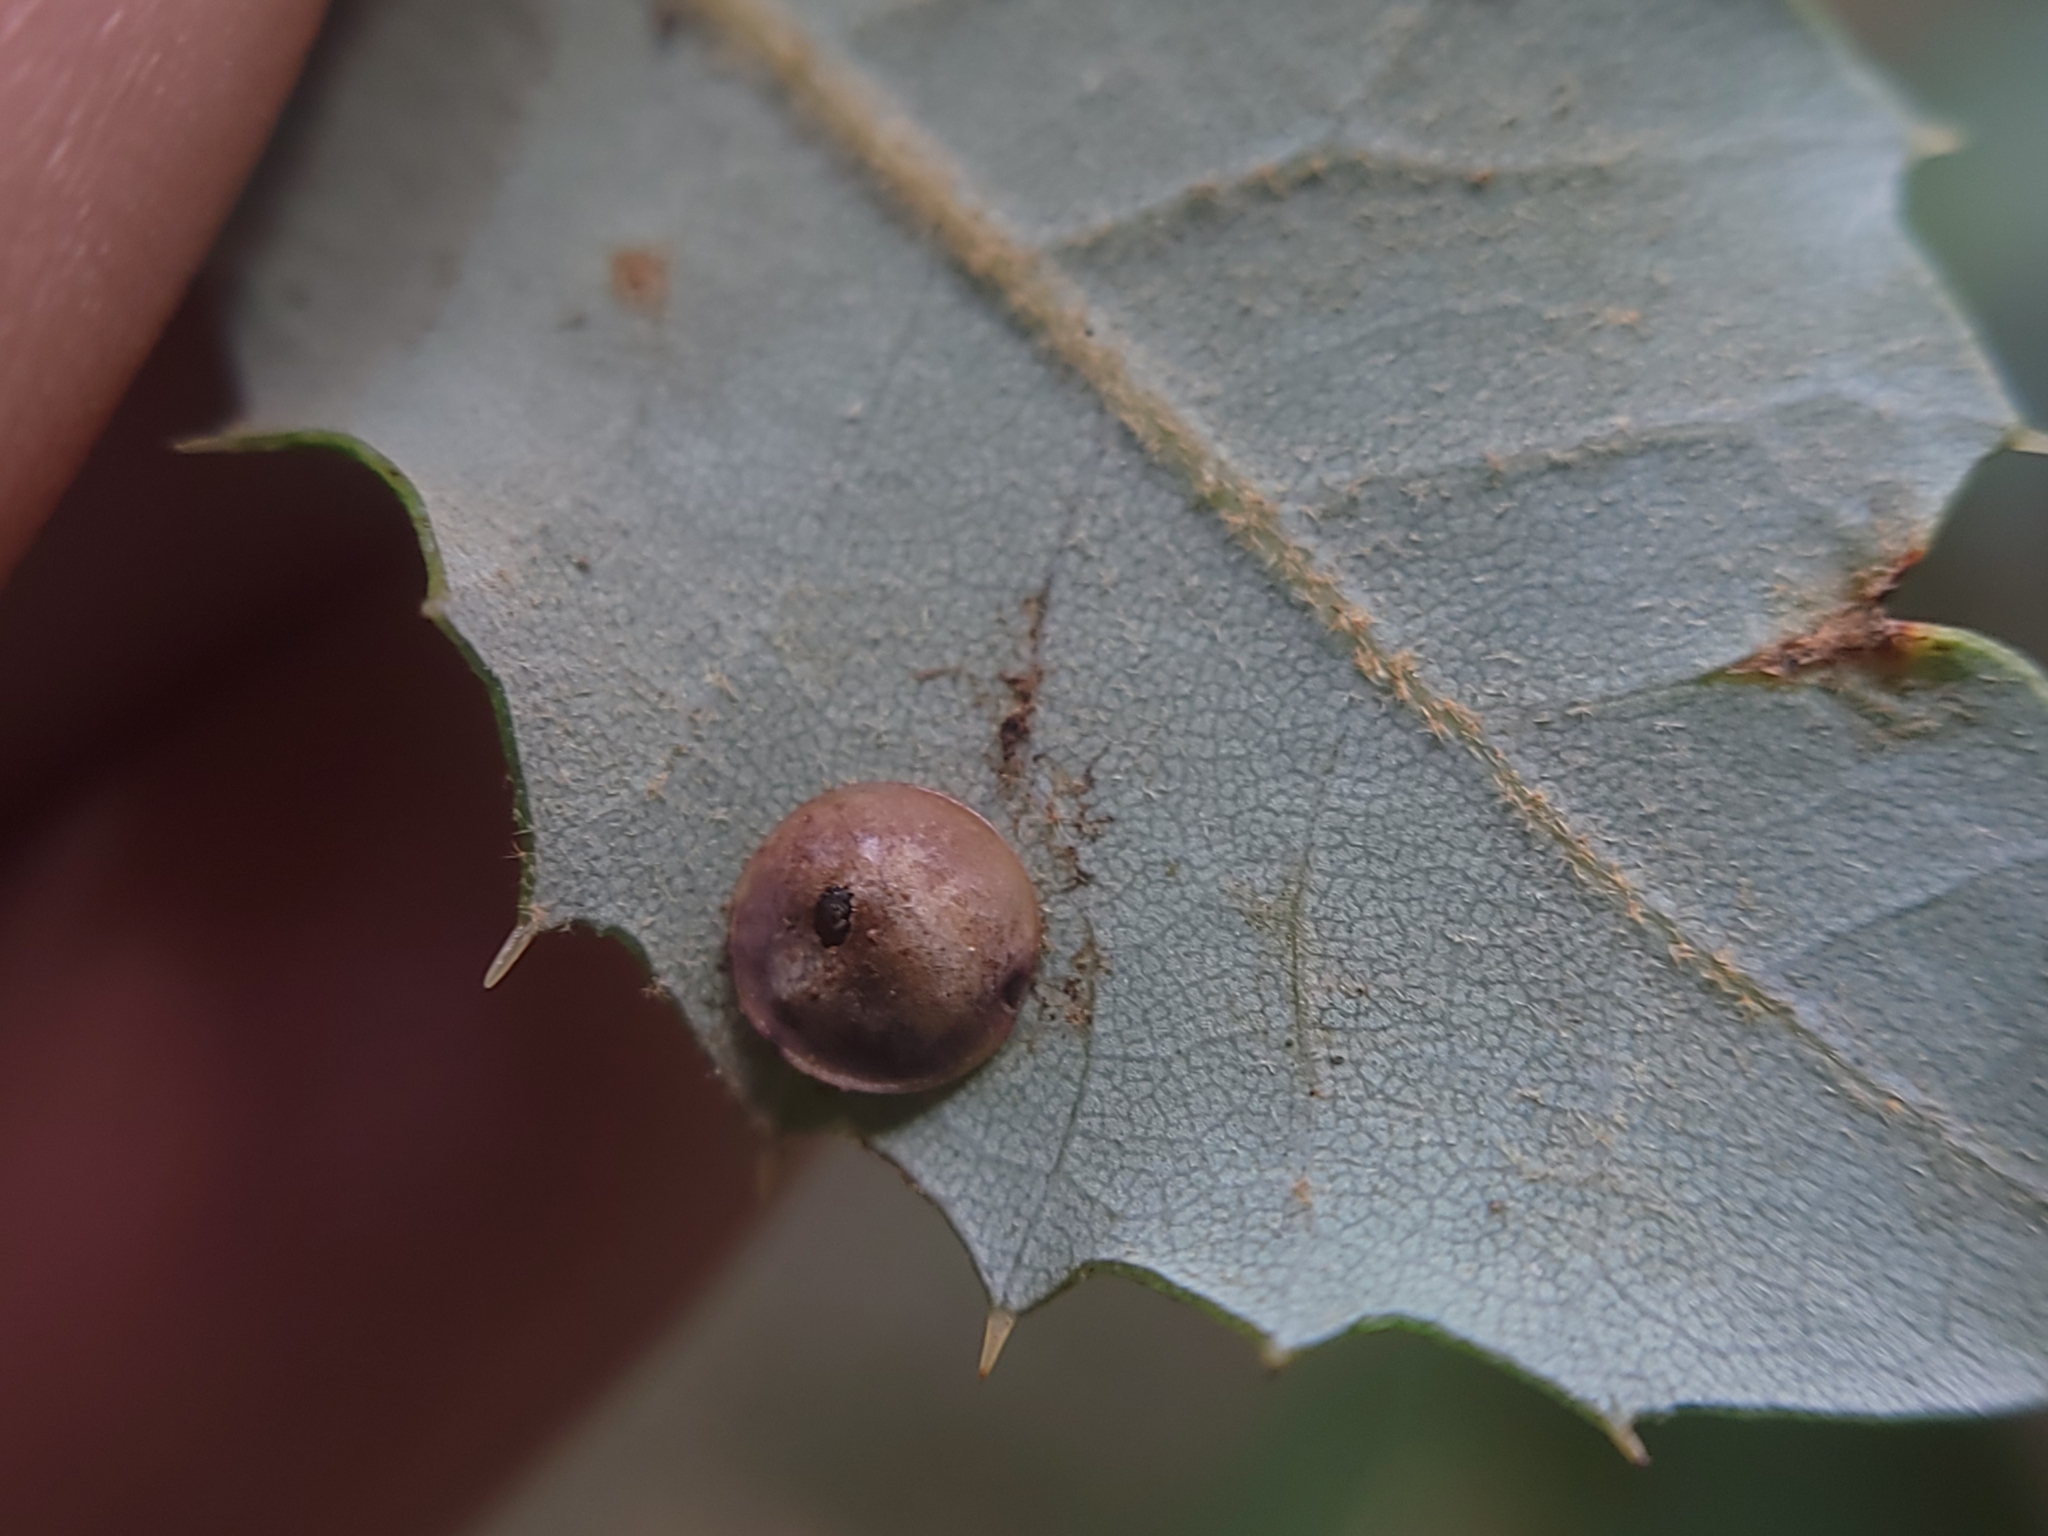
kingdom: Animalia
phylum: Arthropoda
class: Insecta
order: Hymenoptera
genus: Paracraspis
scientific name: Paracraspis
